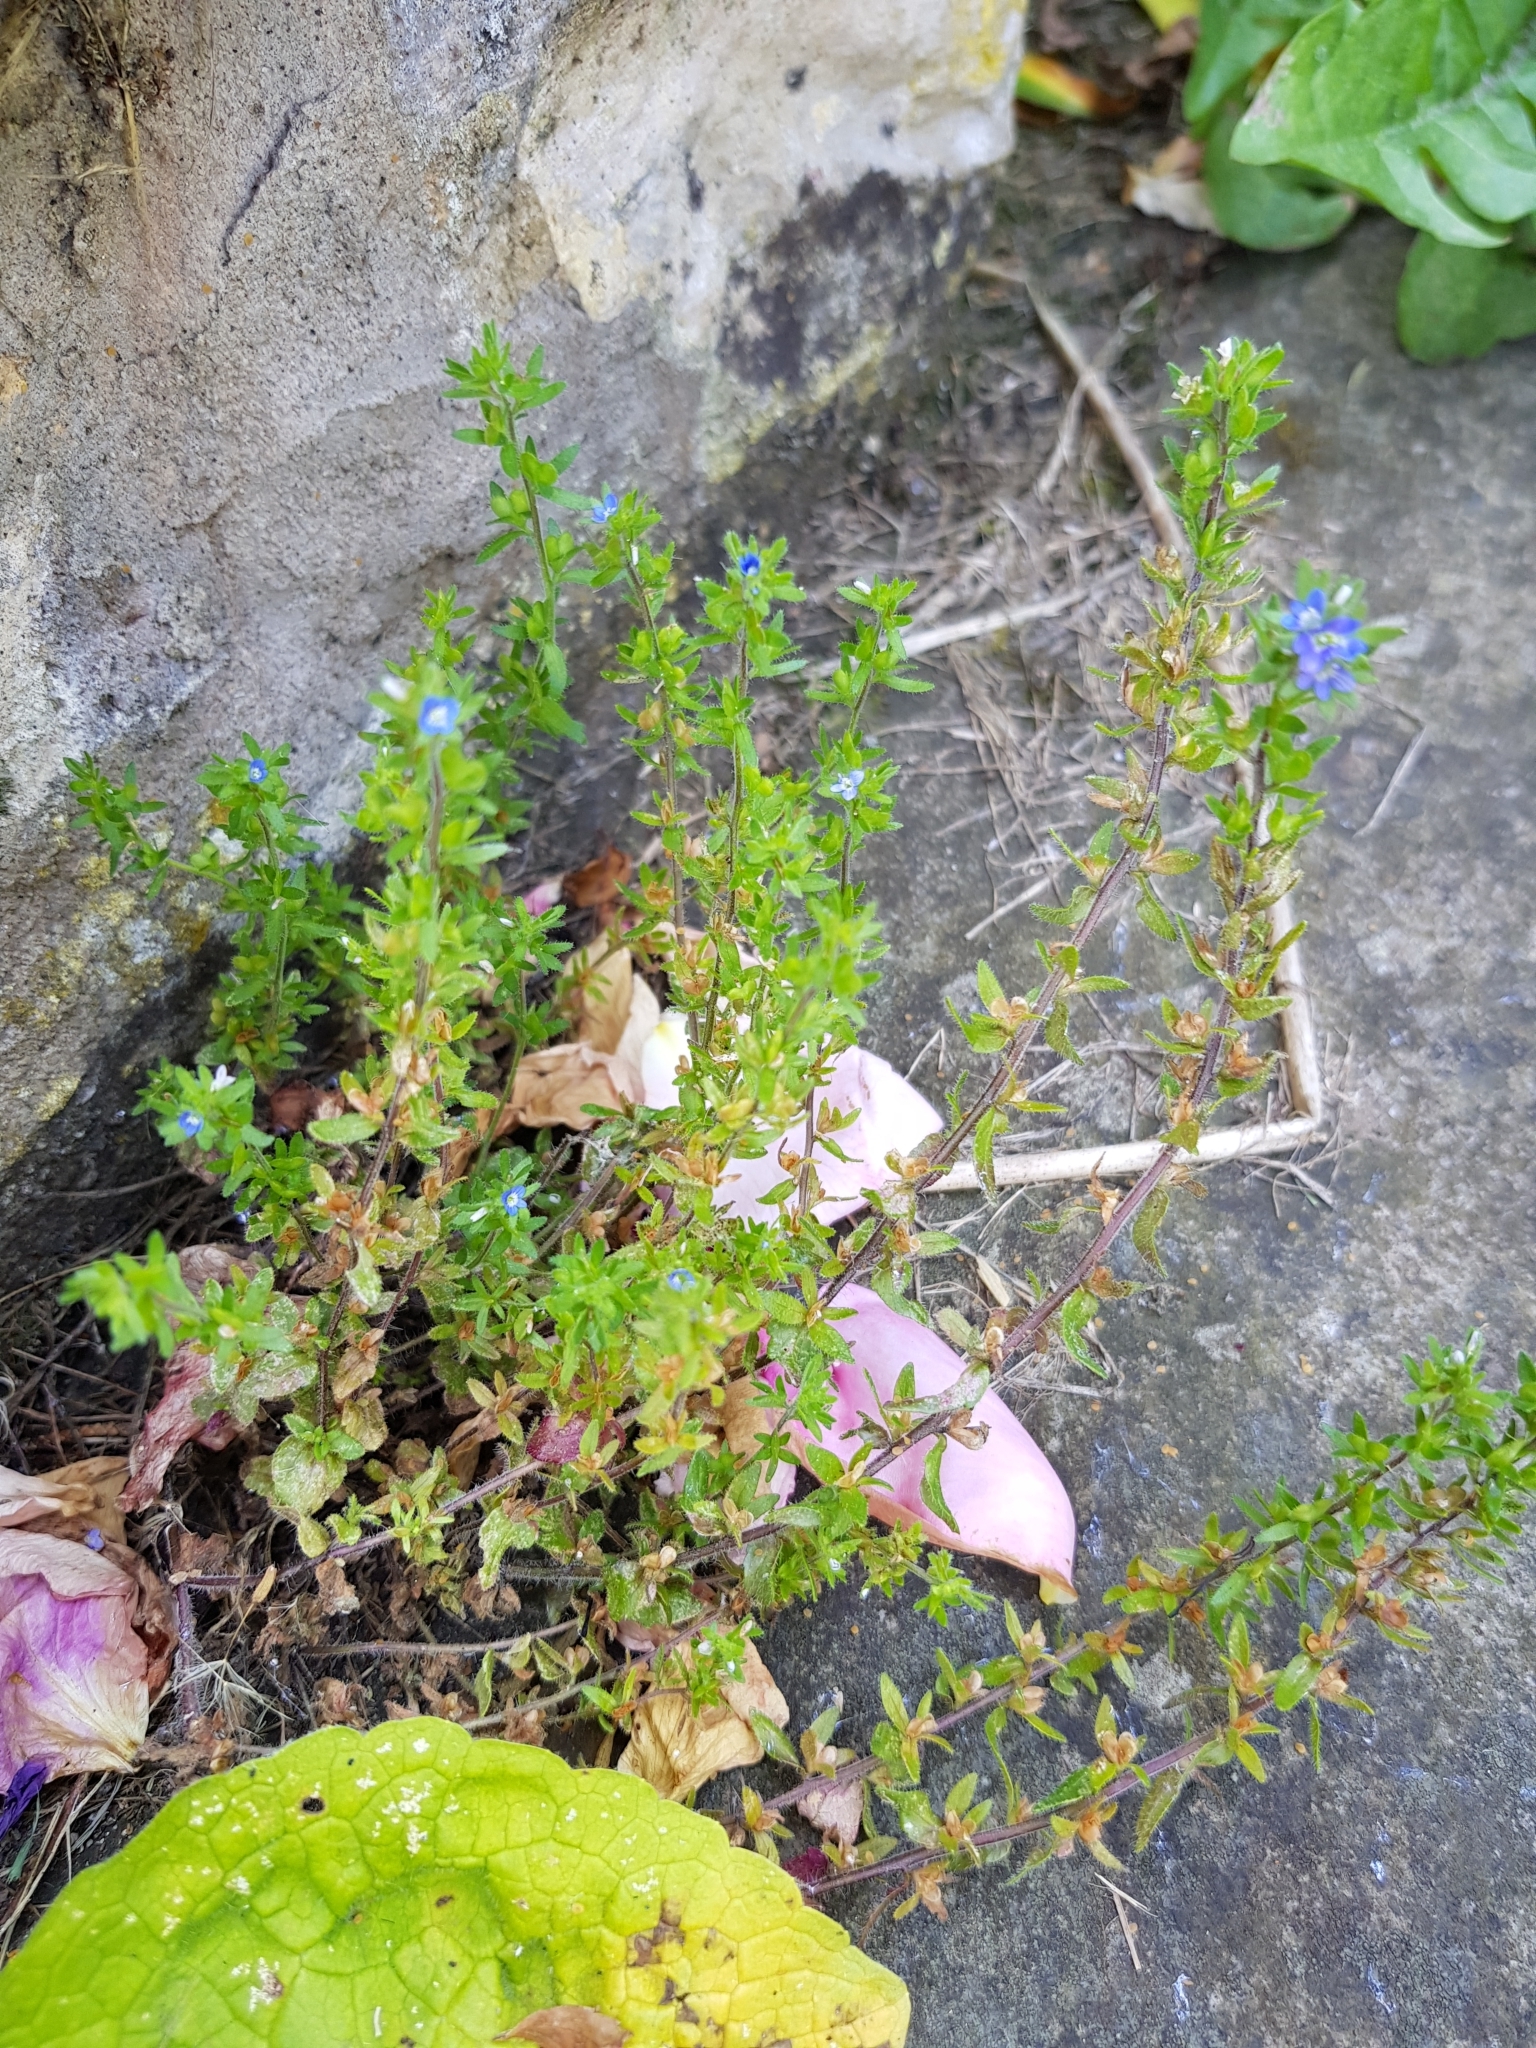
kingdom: Plantae
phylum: Tracheophyta
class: Magnoliopsida
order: Lamiales
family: Plantaginaceae
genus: Veronica
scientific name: Veronica arvensis
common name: Corn speedwell
